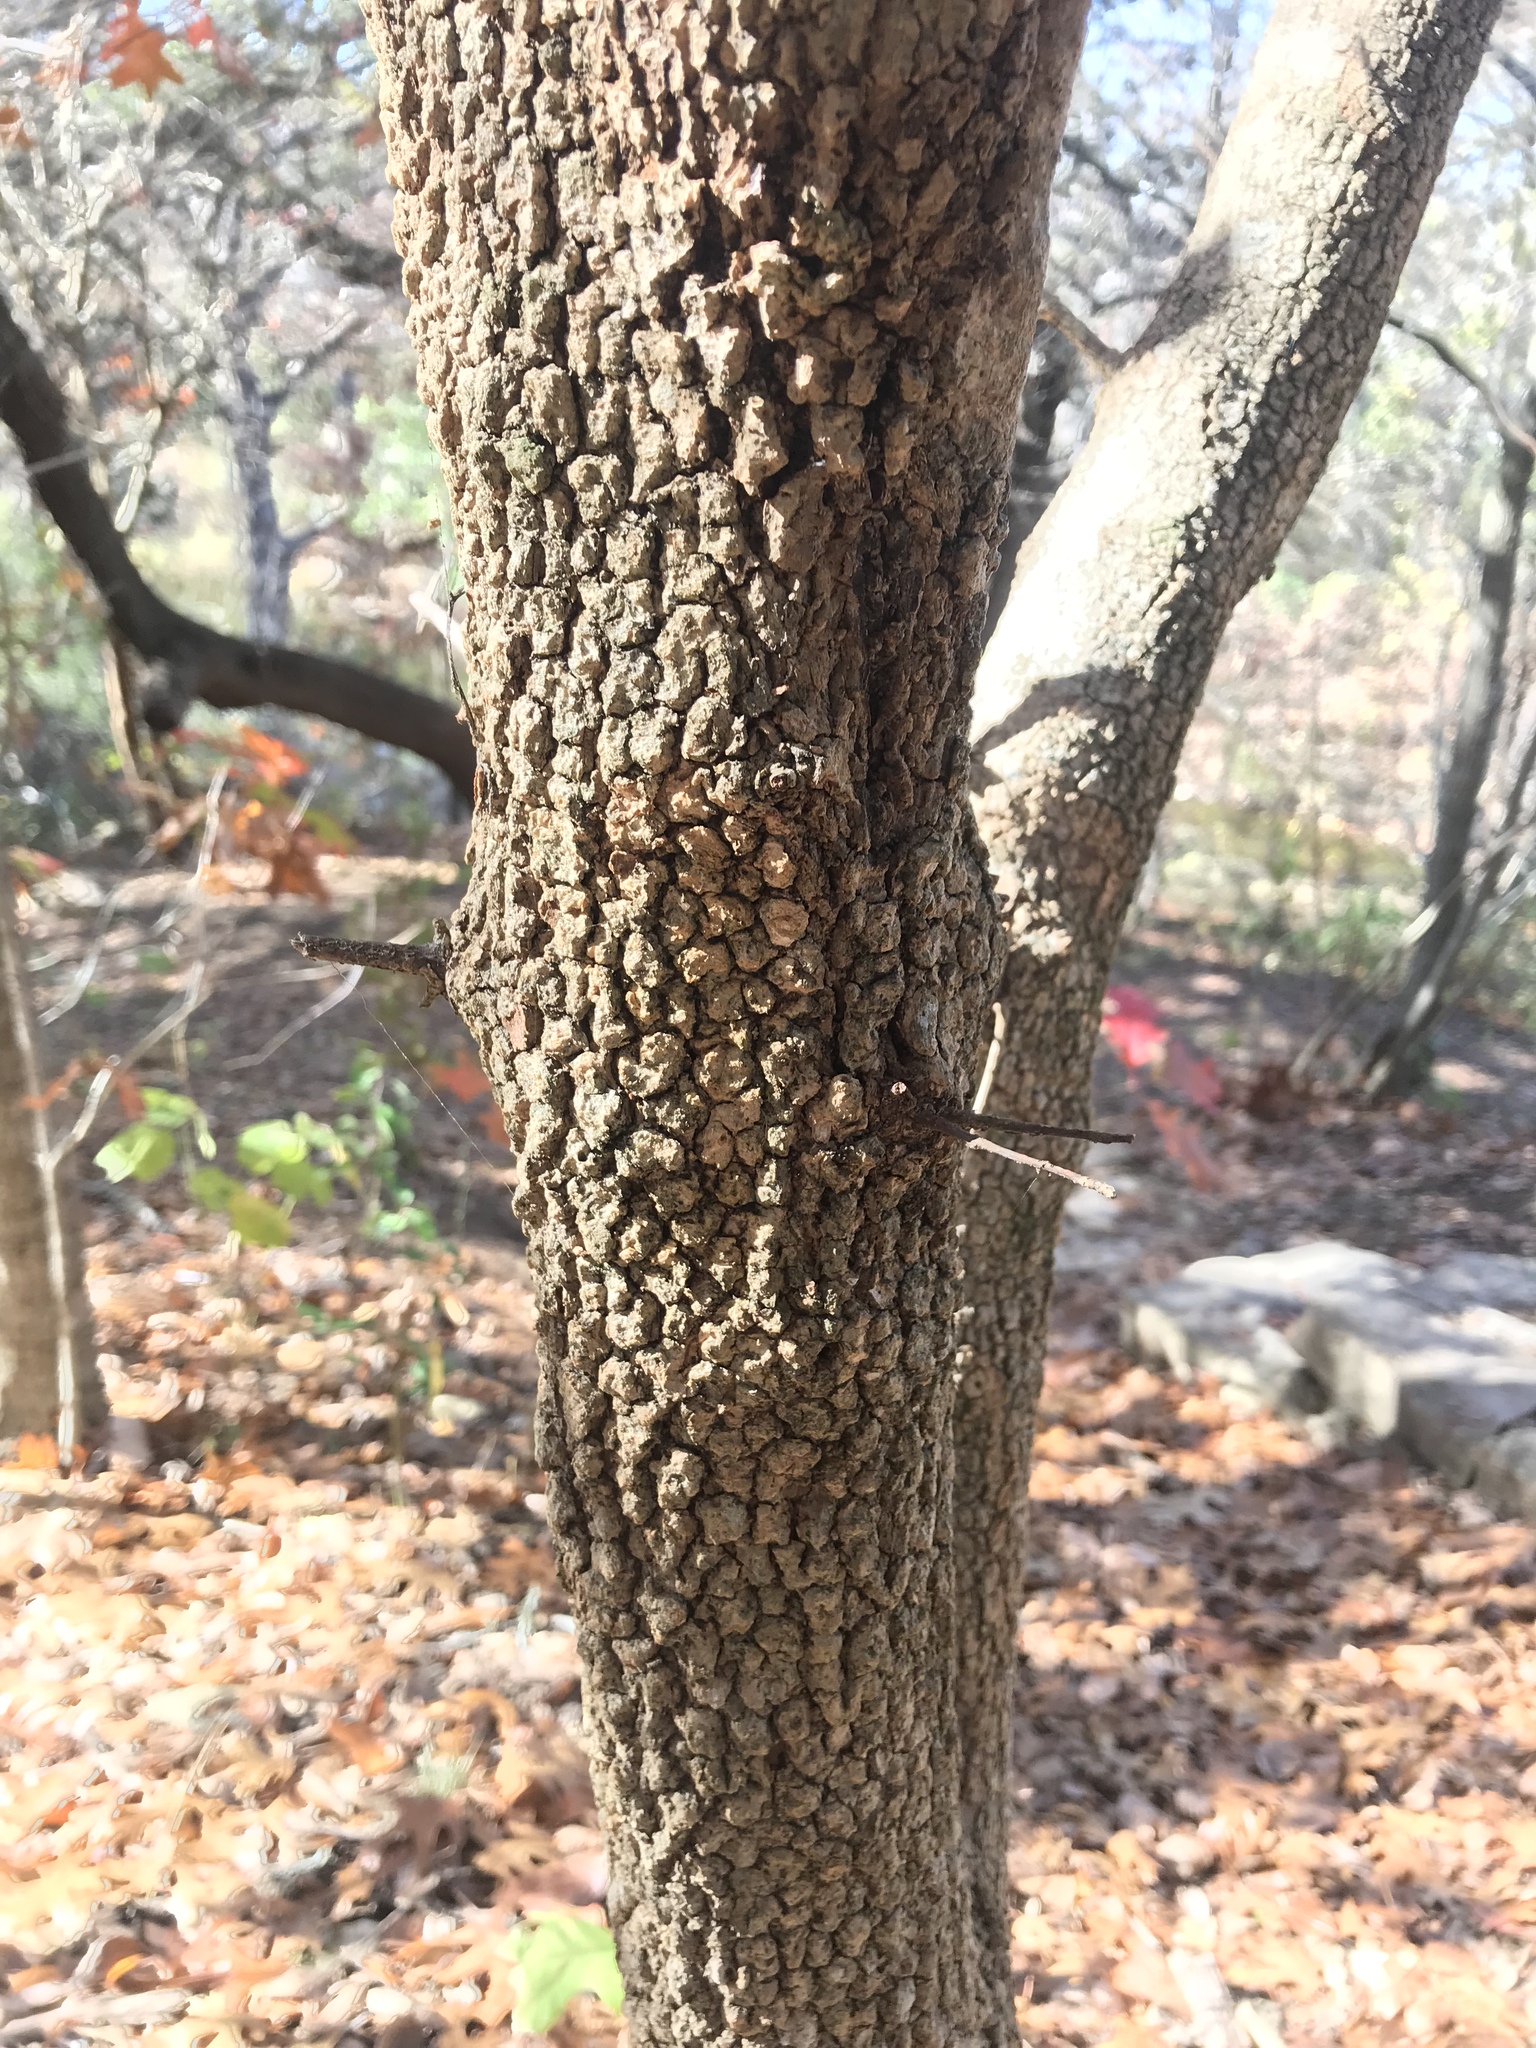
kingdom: Plantae
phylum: Tracheophyta
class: Magnoliopsida
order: Dipsacales
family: Viburnaceae
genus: Viburnum
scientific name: Viburnum rufidulum
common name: Blue haw
